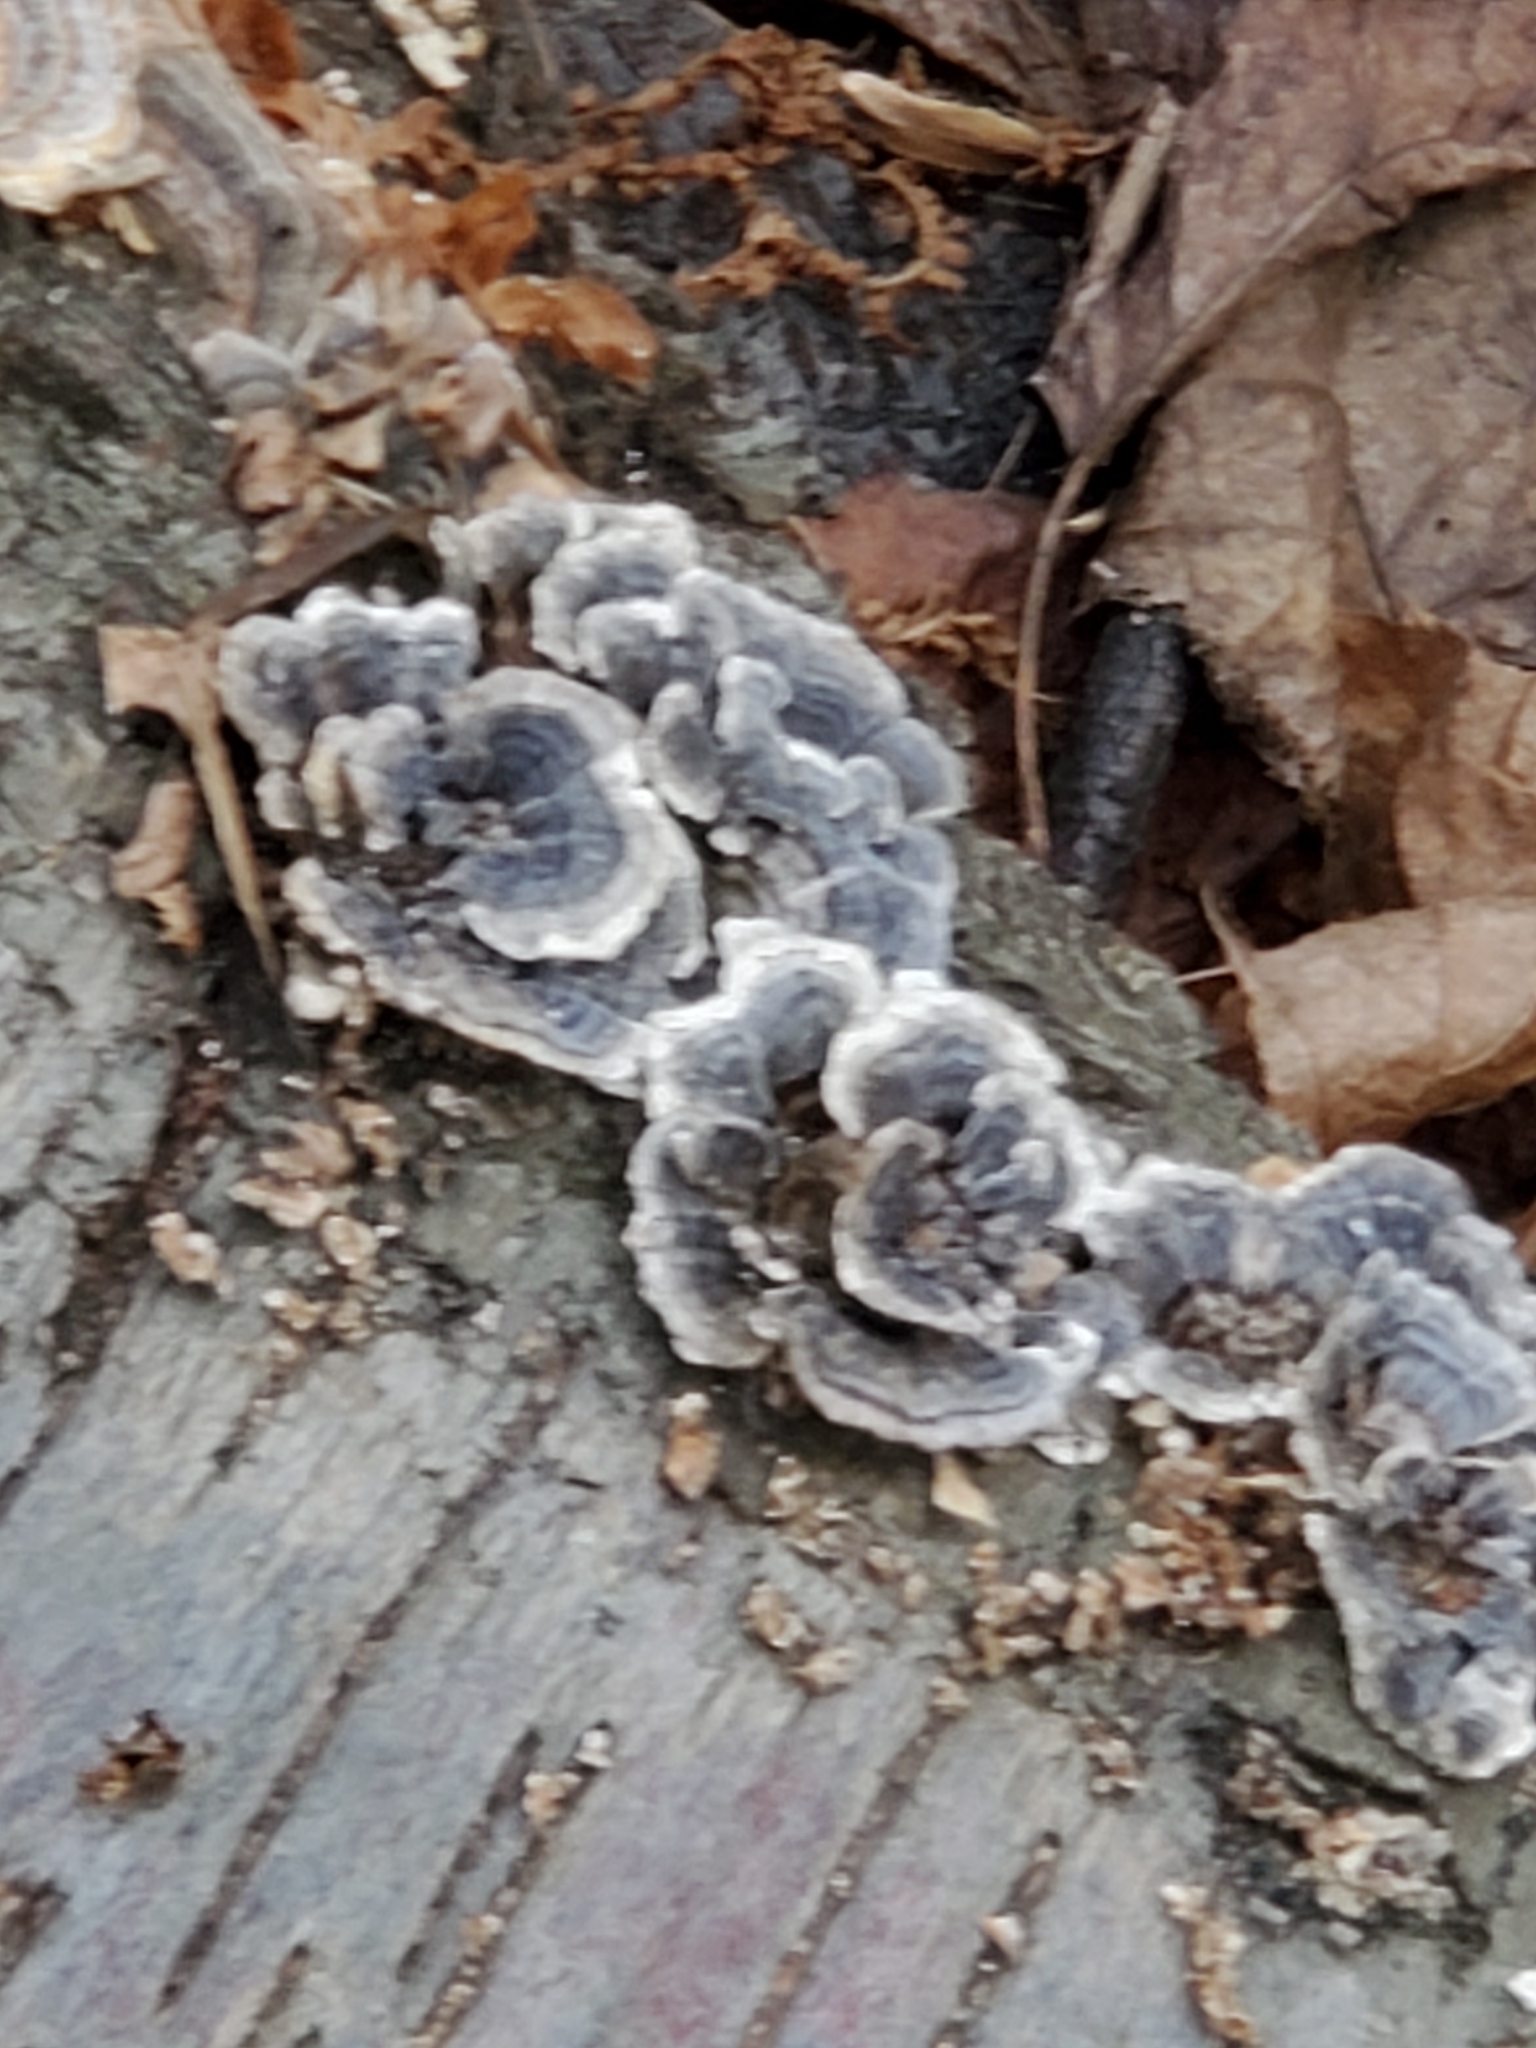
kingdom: Fungi
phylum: Basidiomycota
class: Agaricomycetes
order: Polyporales
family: Polyporaceae
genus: Trametes
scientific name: Trametes versicolor
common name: Turkeytail
